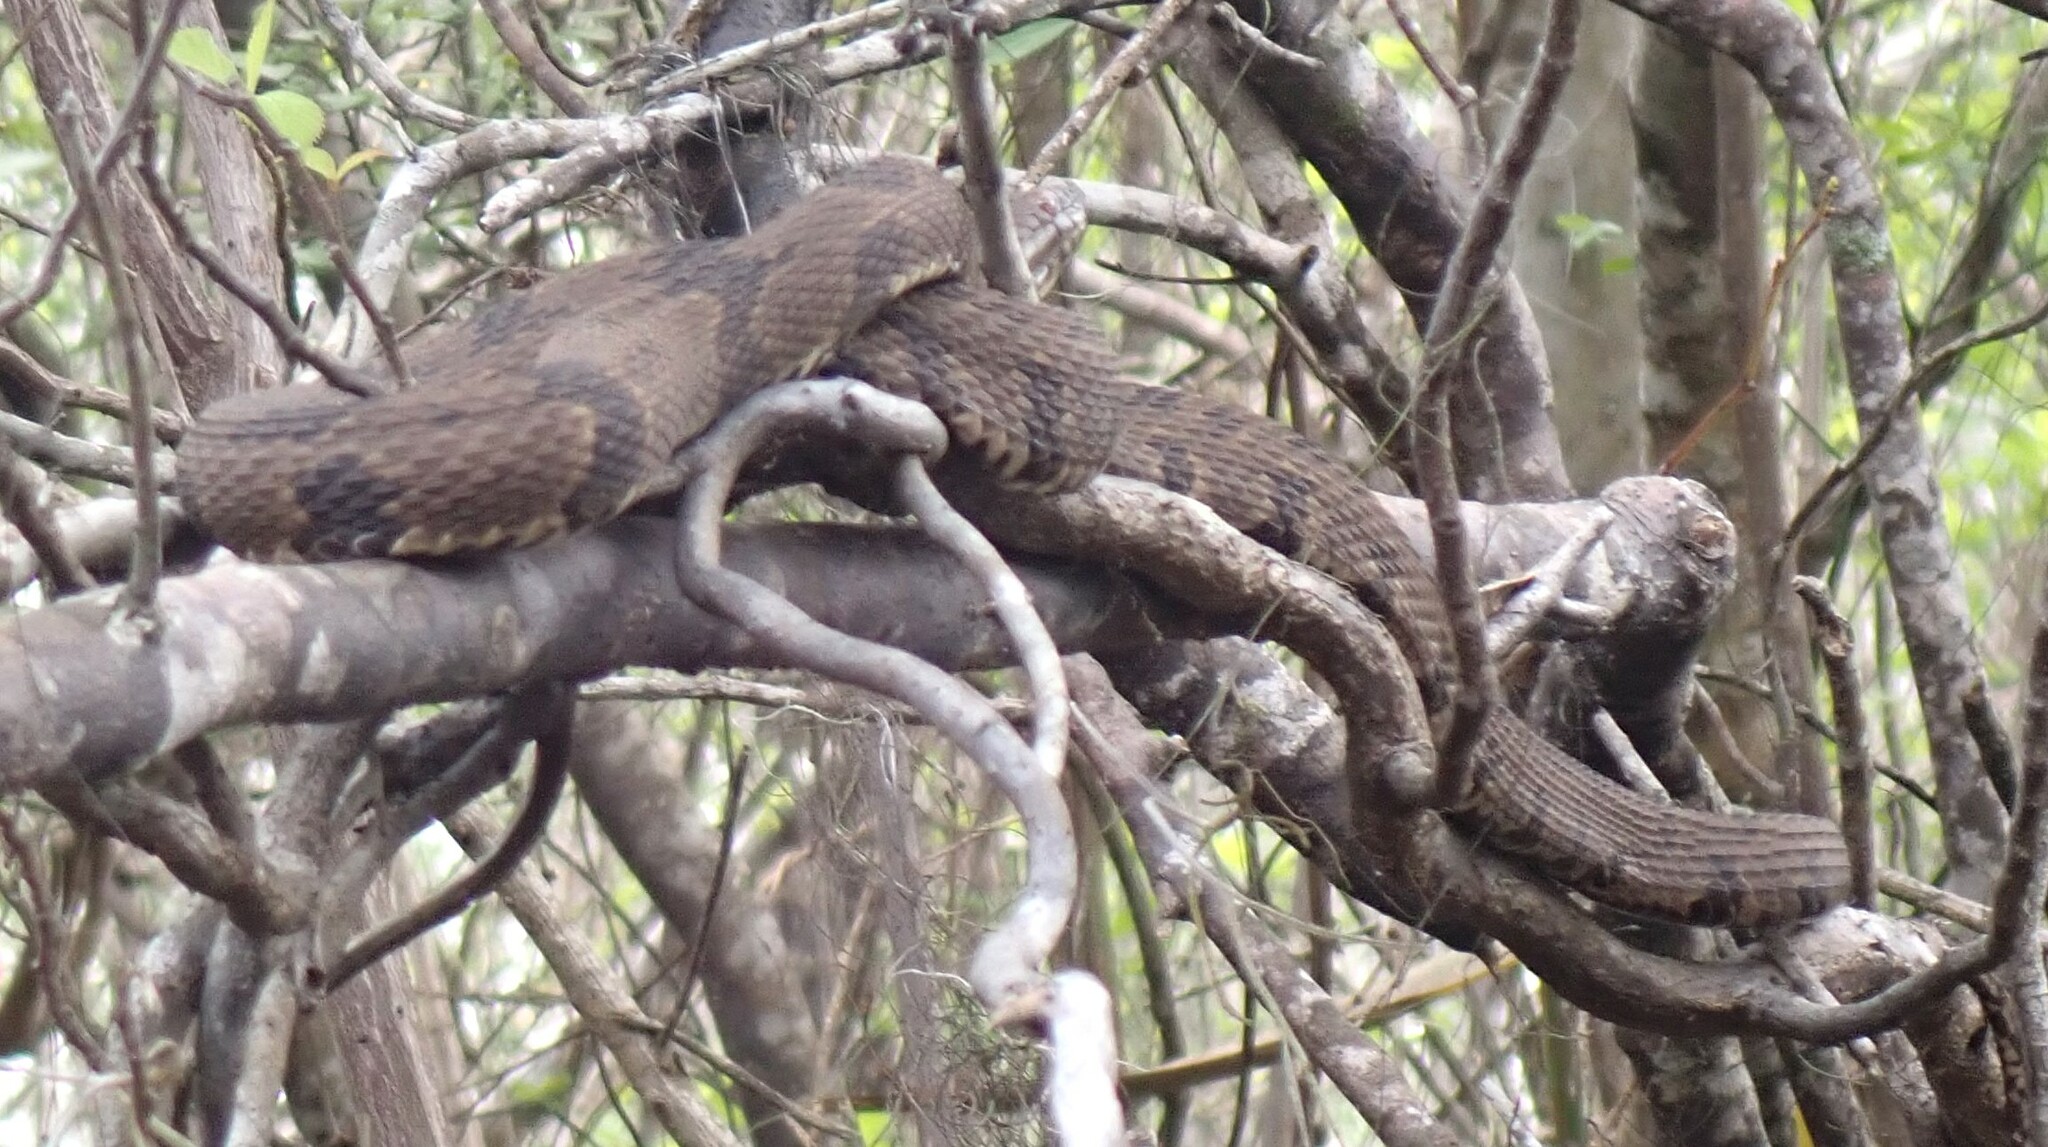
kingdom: Animalia
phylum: Chordata
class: Squamata
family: Colubridae
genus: Nerodia
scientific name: Nerodia taxispilota
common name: Brown water snake
